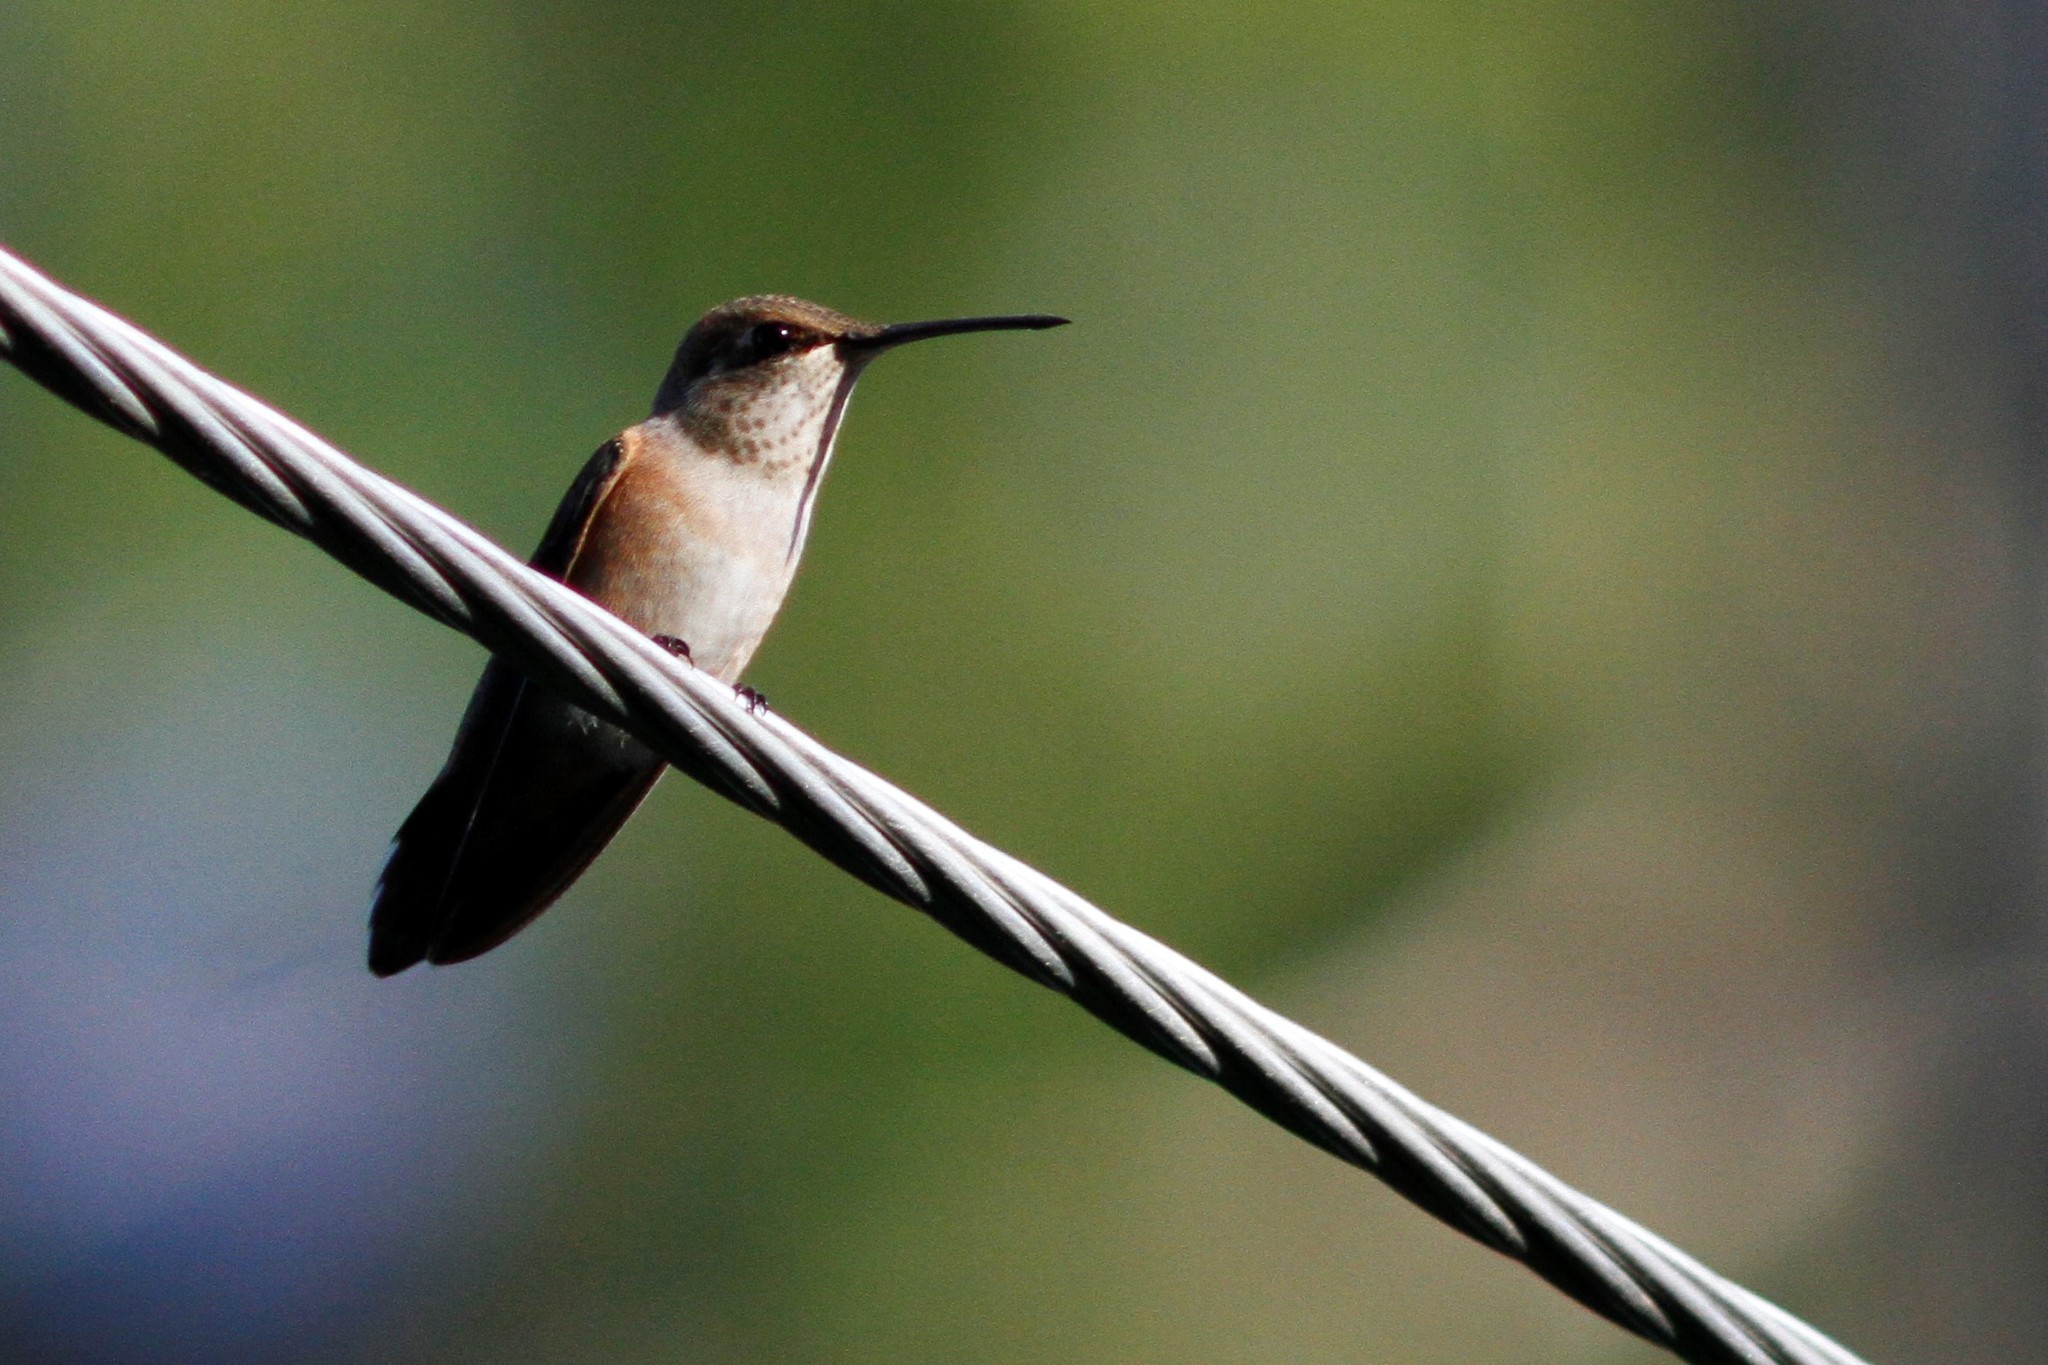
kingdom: Animalia
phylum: Chordata
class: Aves
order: Apodiformes
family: Trochilidae
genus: Selasphorus
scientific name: Selasphorus rufus
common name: Rufous hummingbird
